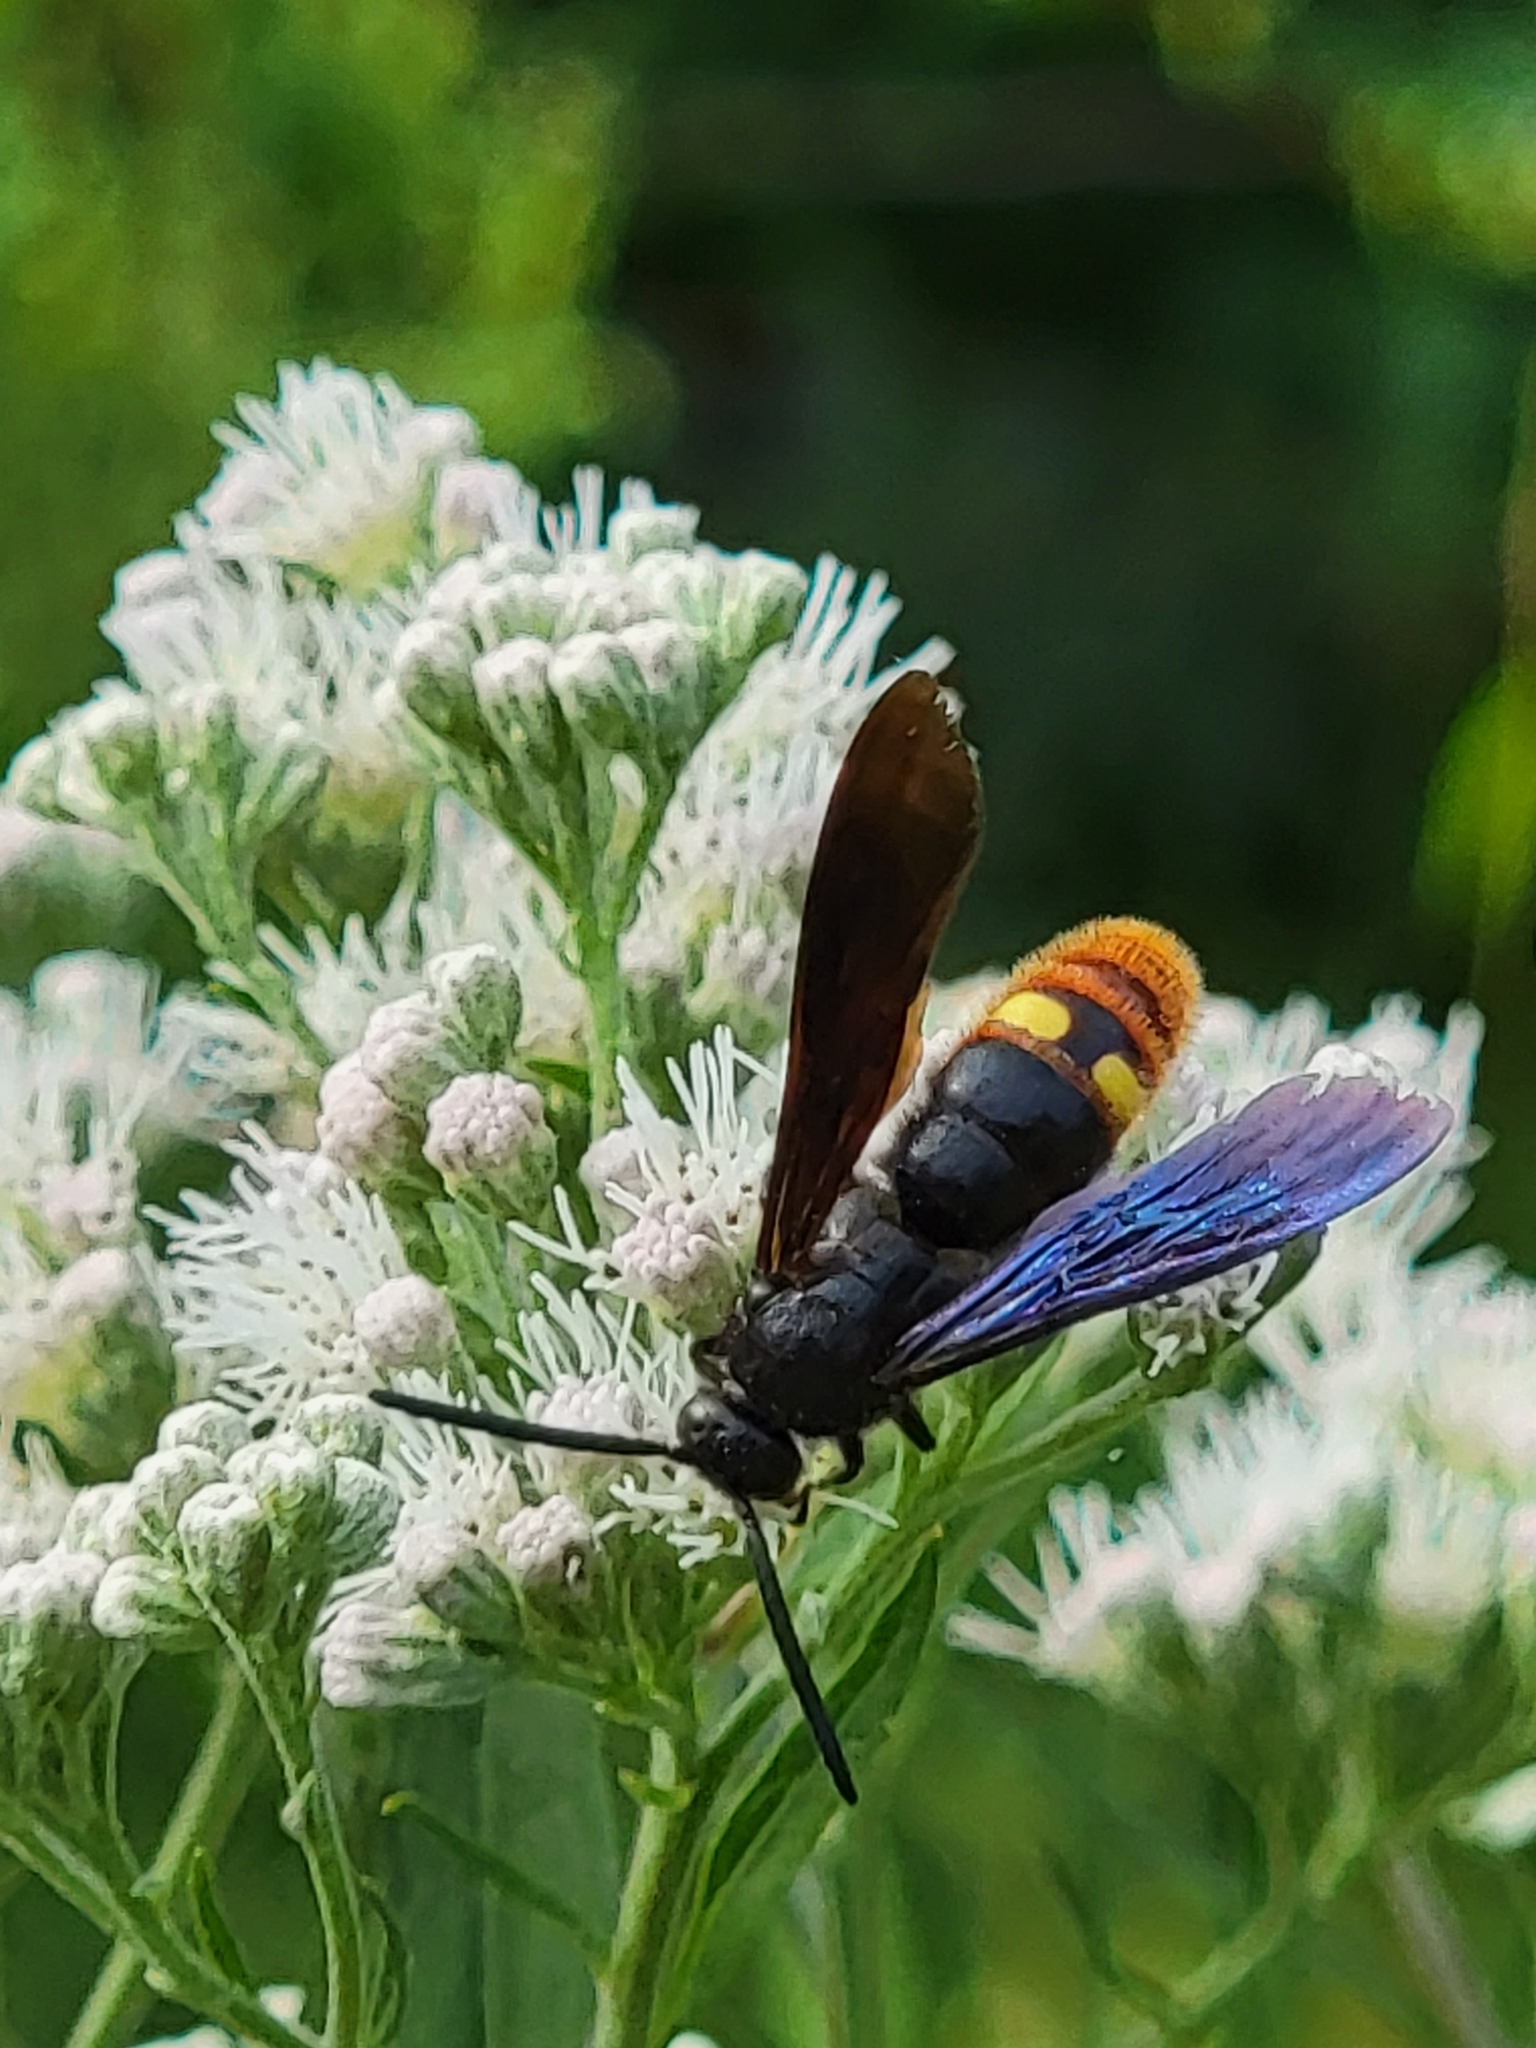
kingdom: Animalia
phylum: Arthropoda
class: Insecta
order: Hymenoptera
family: Scoliidae
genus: Scolia
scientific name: Scolia dubia
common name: Blue-winged scoliid wasp
